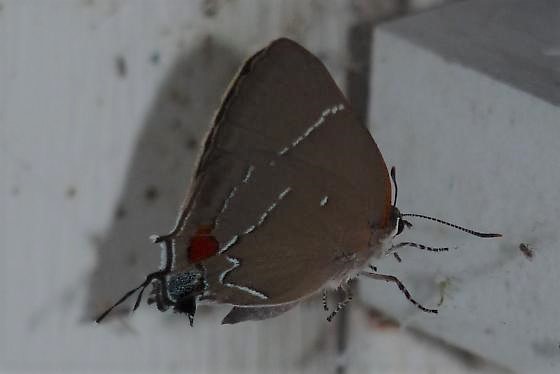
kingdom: Animalia
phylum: Arthropoda
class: Insecta
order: Lepidoptera
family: Lycaenidae
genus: Parrhasius
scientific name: Parrhasius m-album
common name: White m hairstreak
